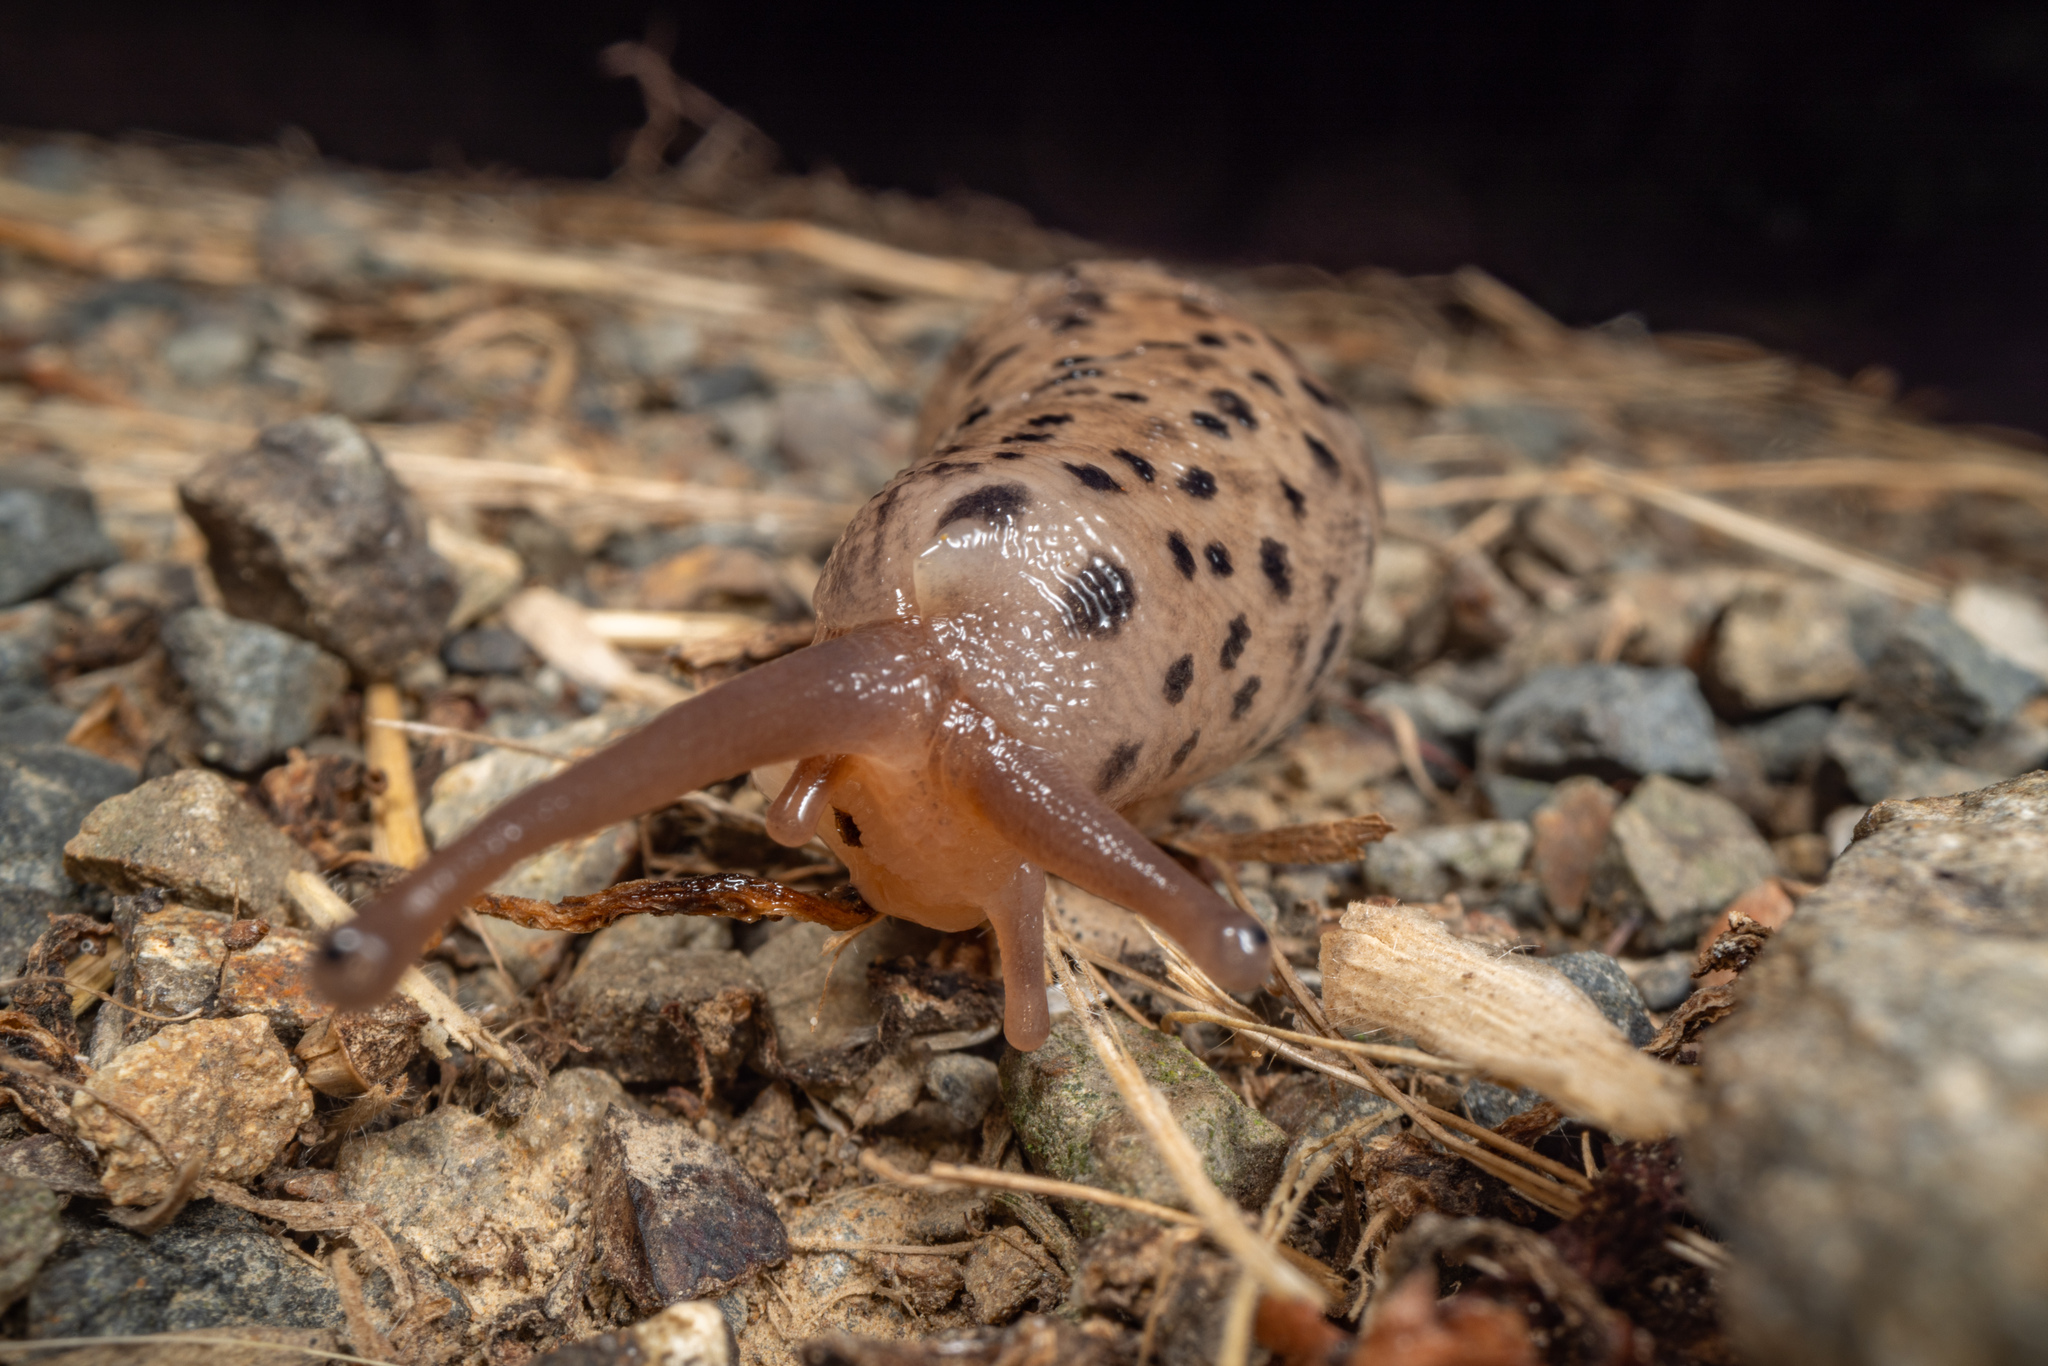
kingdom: Animalia
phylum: Mollusca
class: Gastropoda
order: Stylommatophora
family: Limacidae
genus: Limax
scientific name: Limax maximus
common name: Great grey slug
